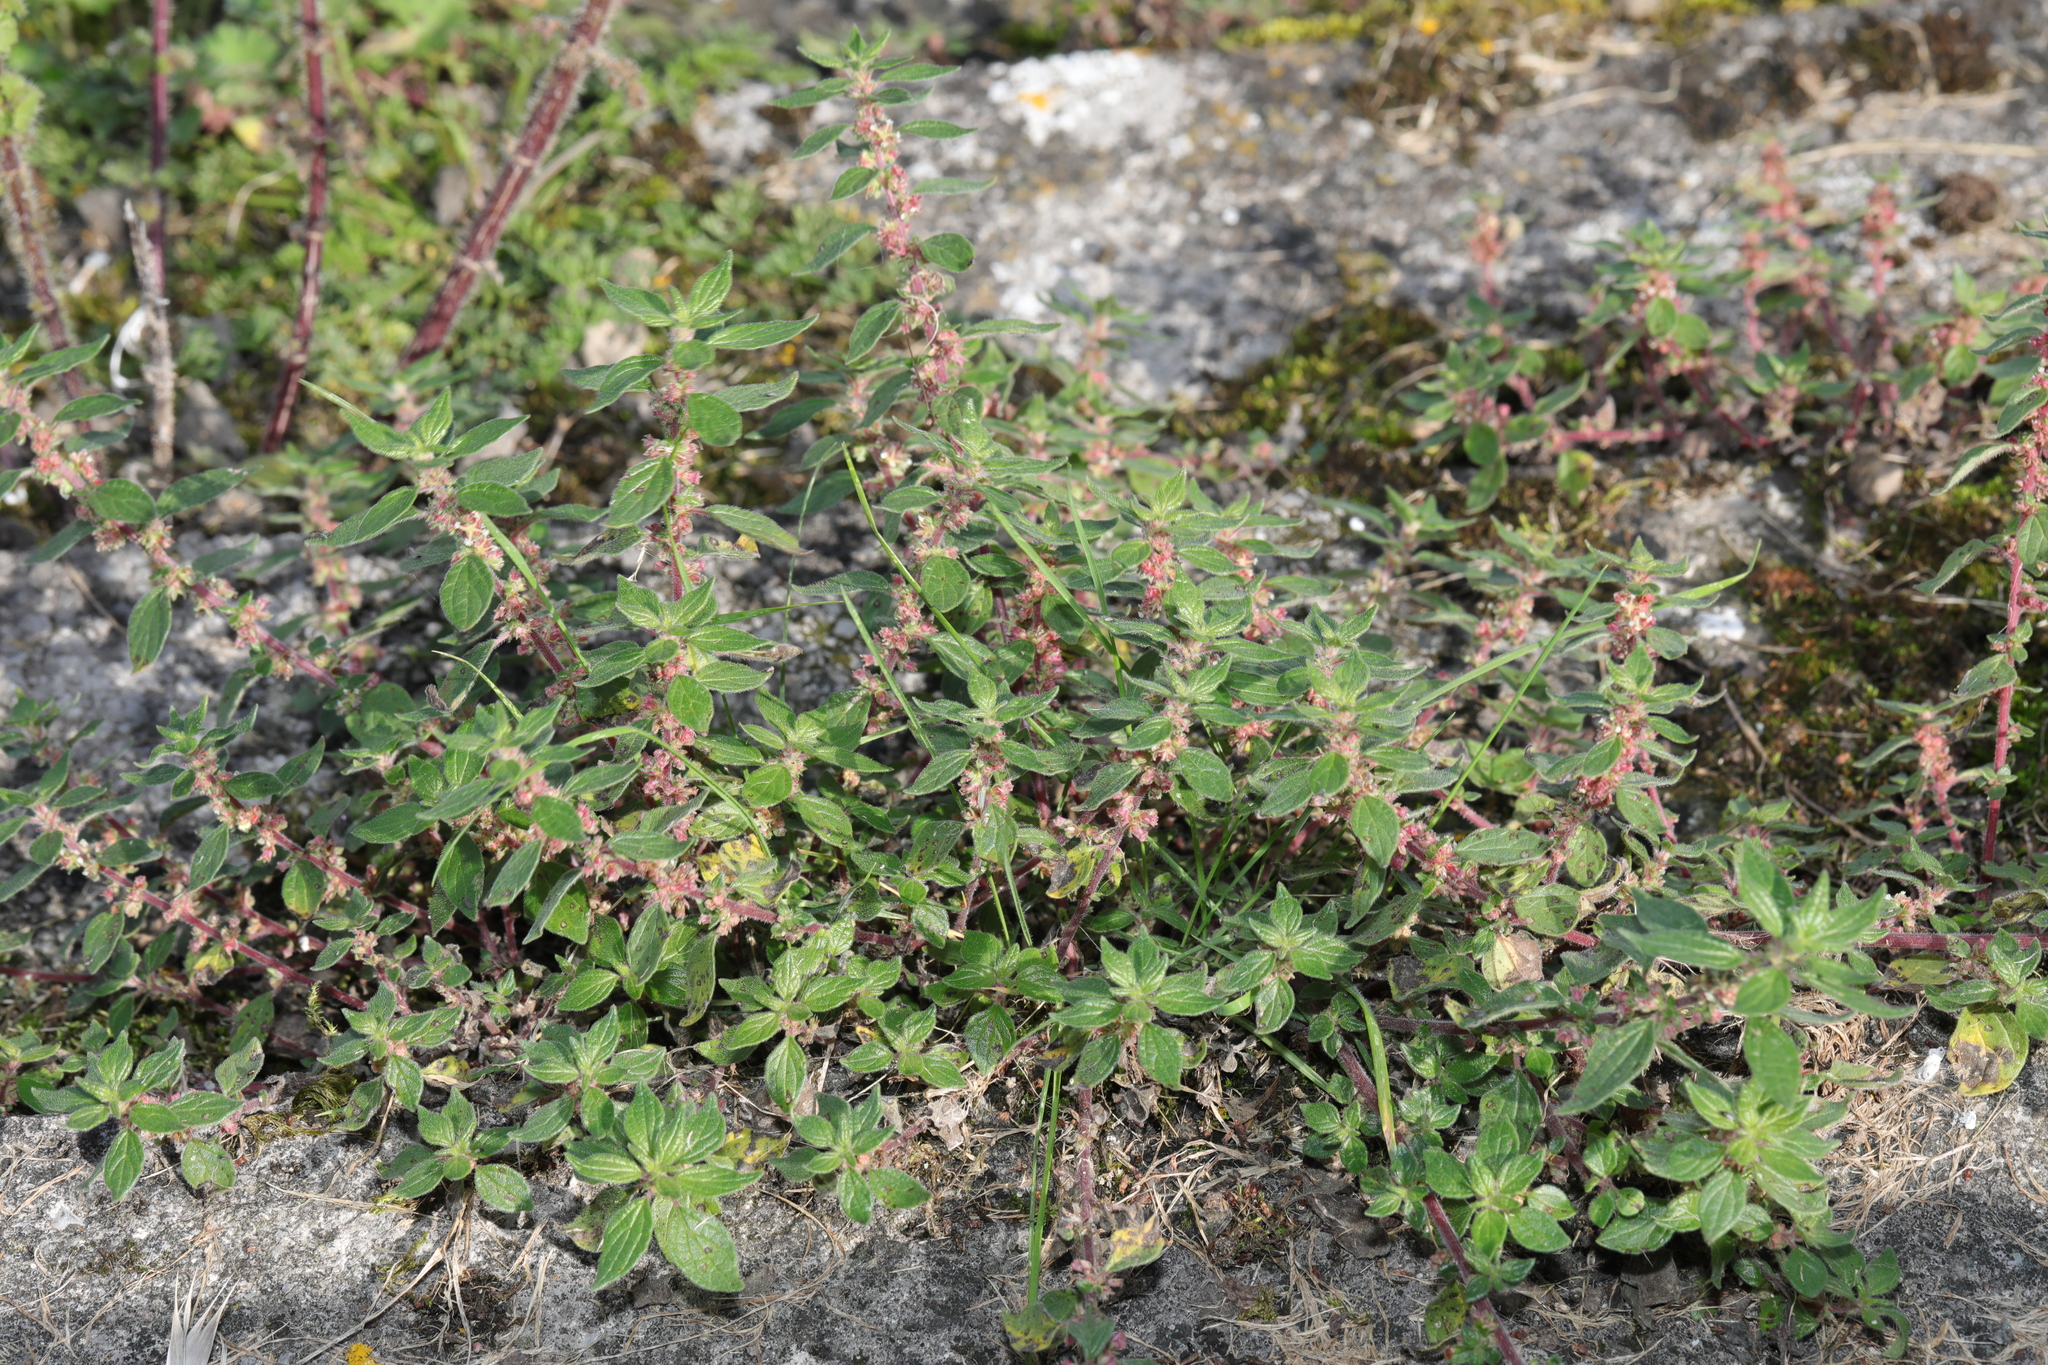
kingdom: Plantae
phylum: Tracheophyta
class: Magnoliopsida
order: Rosales
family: Urticaceae
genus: Parietaria
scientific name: Parietaria judaica
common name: Pellitory-of-the-wall
